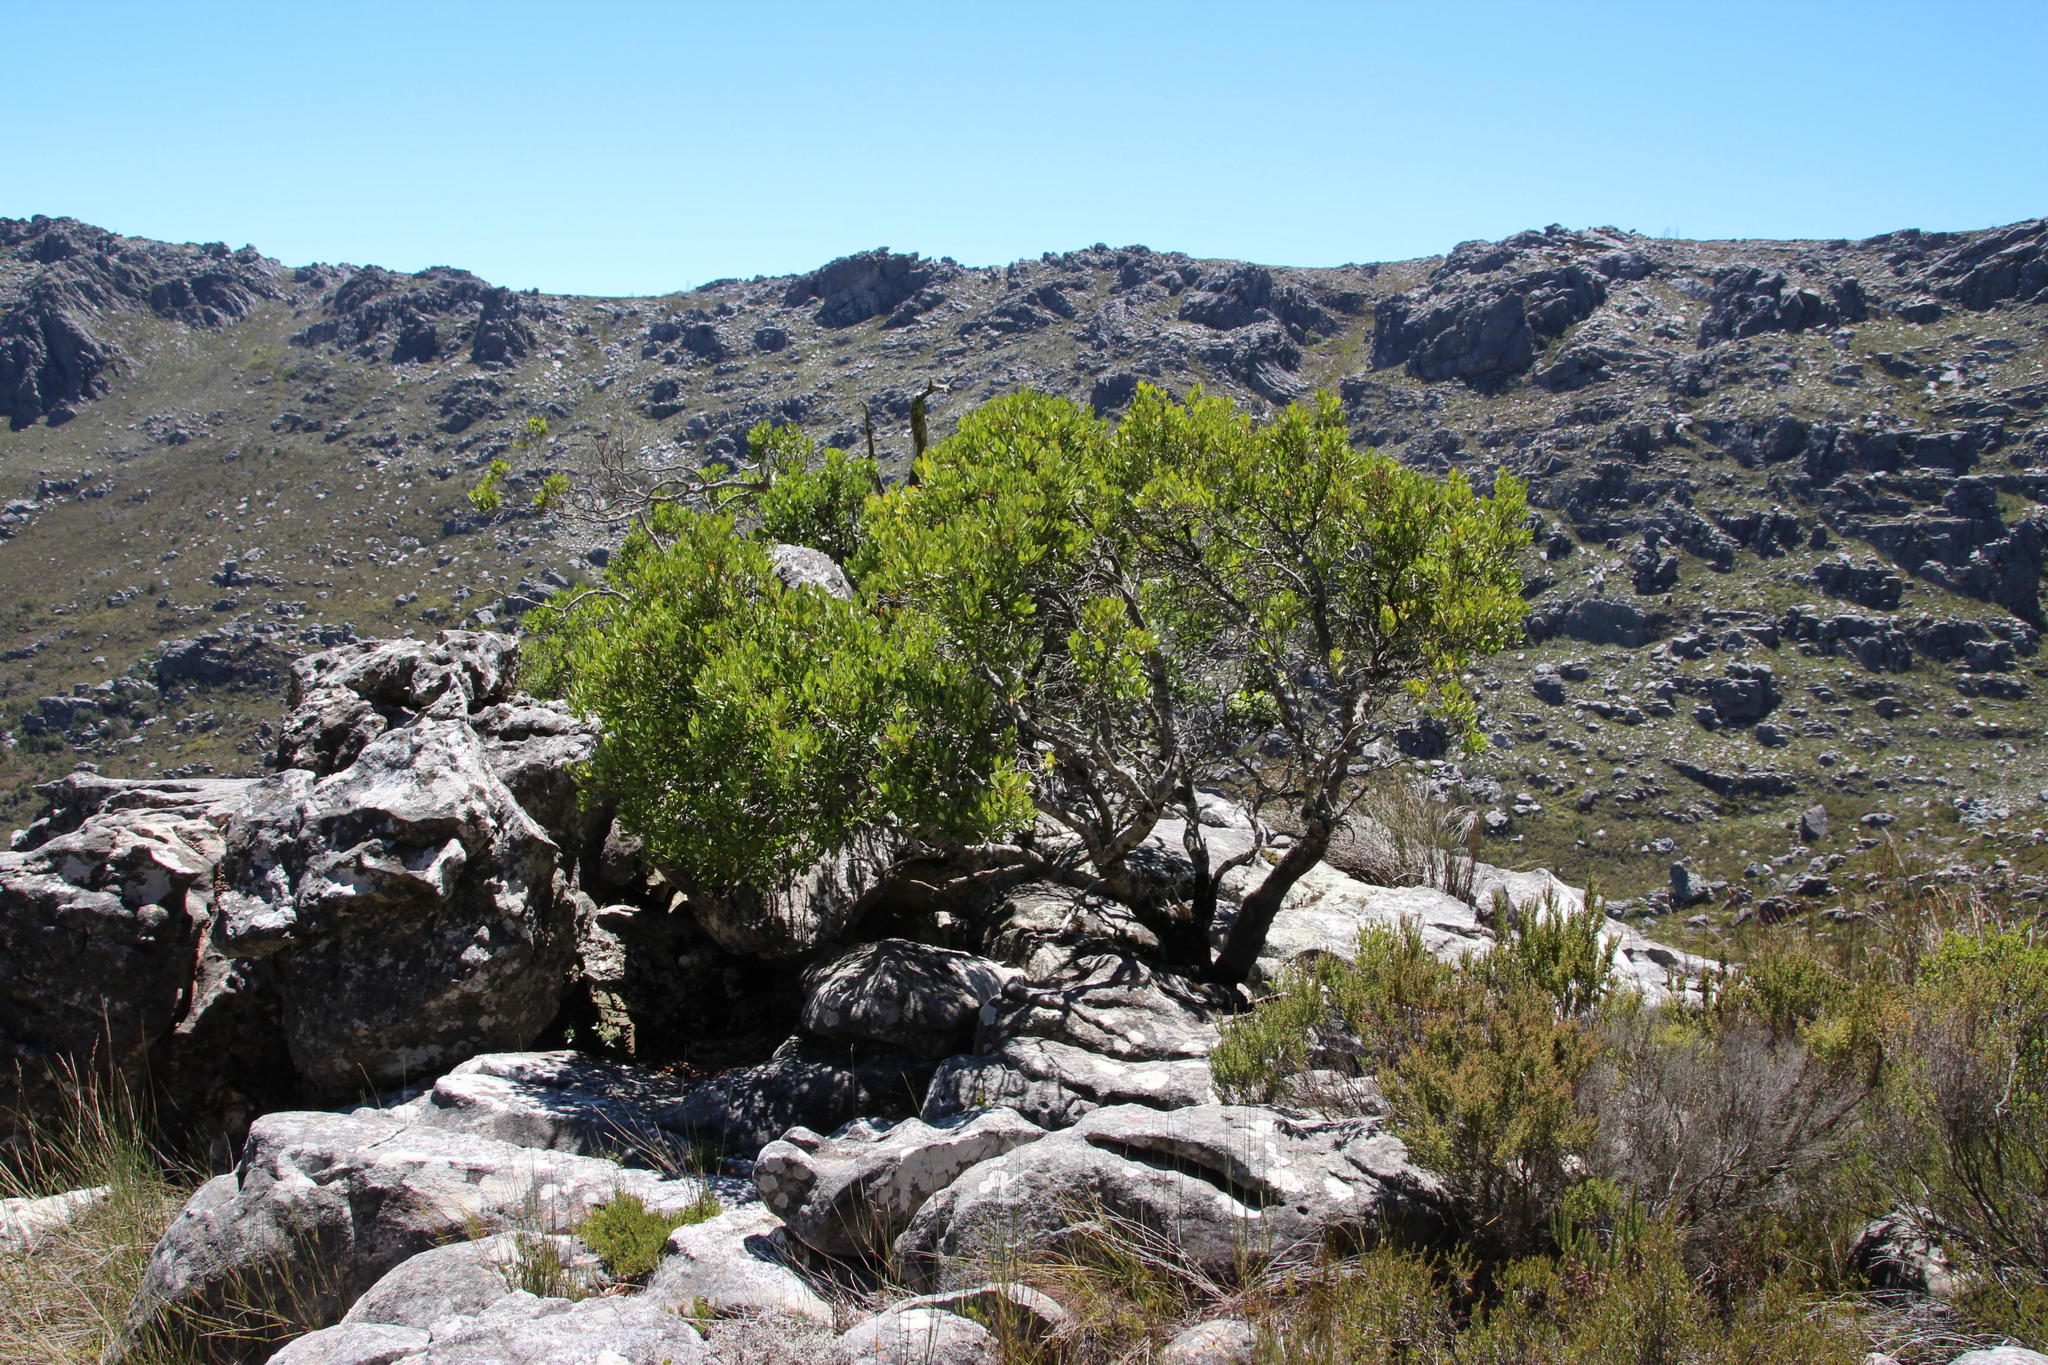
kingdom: Plantae
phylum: Tracheophyta
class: Magnoliopsida
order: Celastrales
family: Celastraceae
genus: Elaeodendron
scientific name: Elaeodendron schinoides
